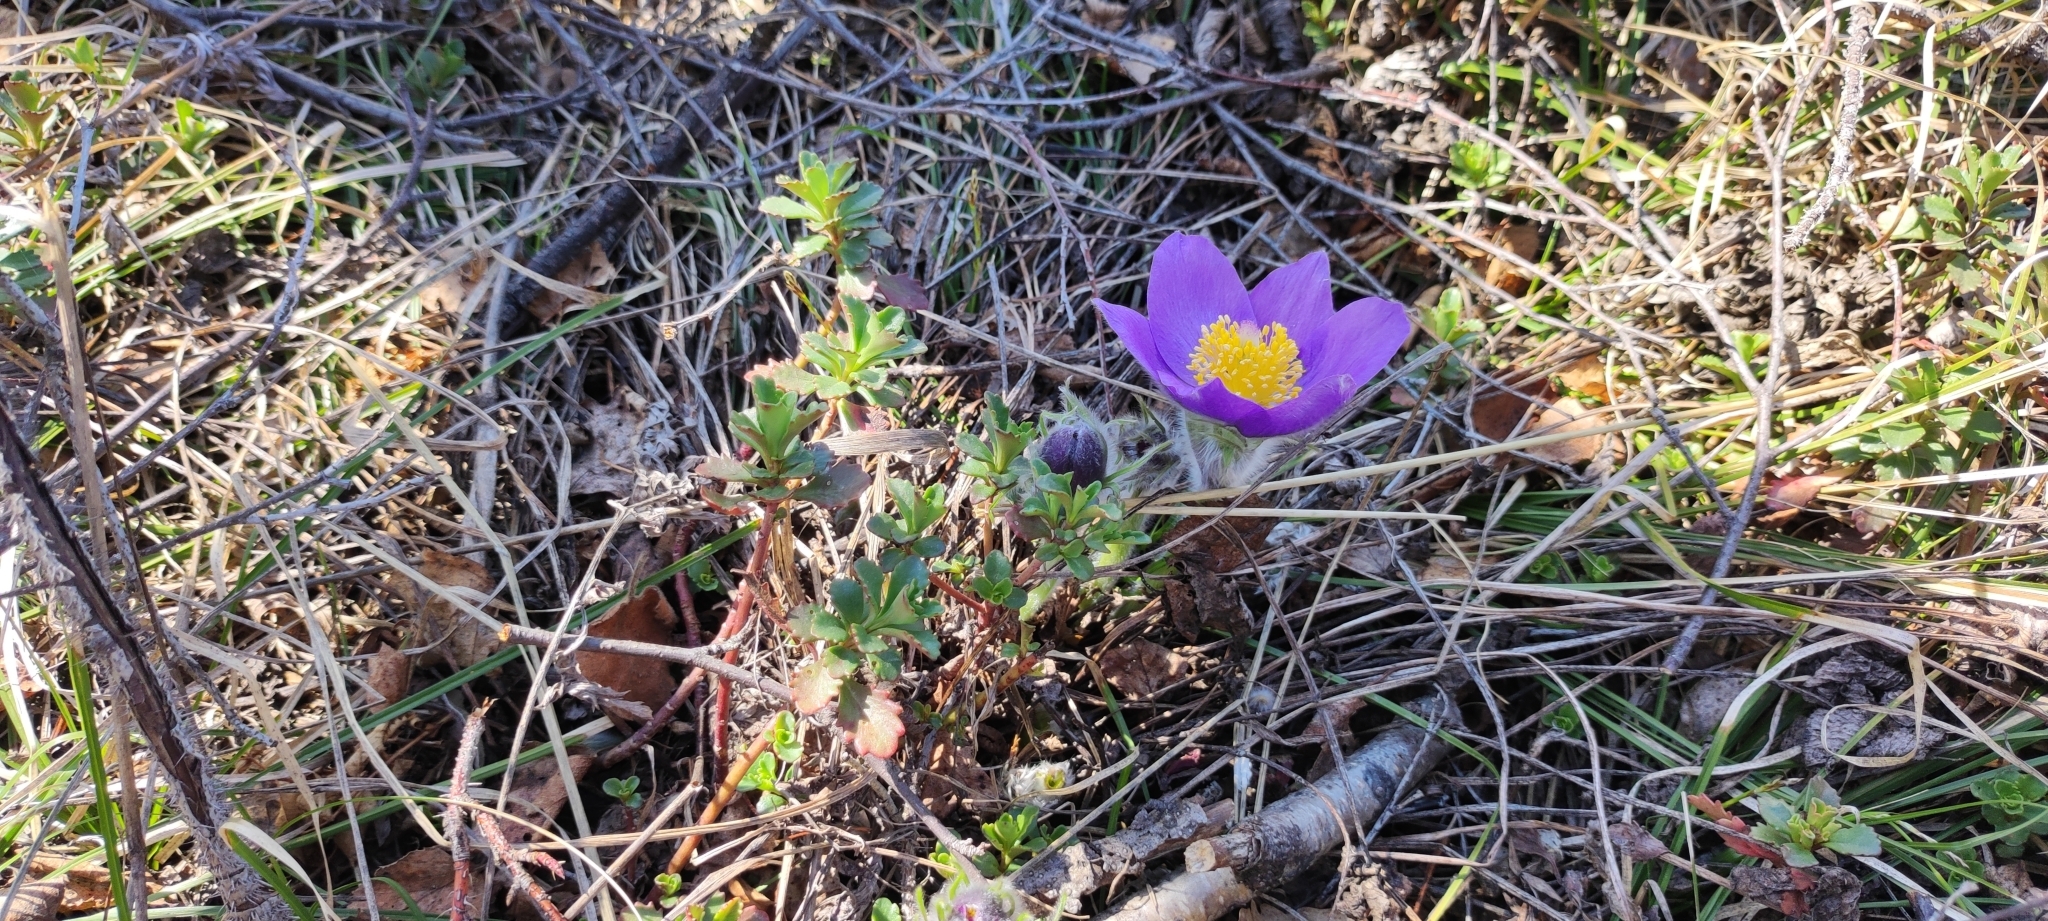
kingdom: Plantae
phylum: Tracheophyta
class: Magnoliopsida
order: Ranunculales
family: Ranunculaceae
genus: Pulsatilla
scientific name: Pulsatilla patens
